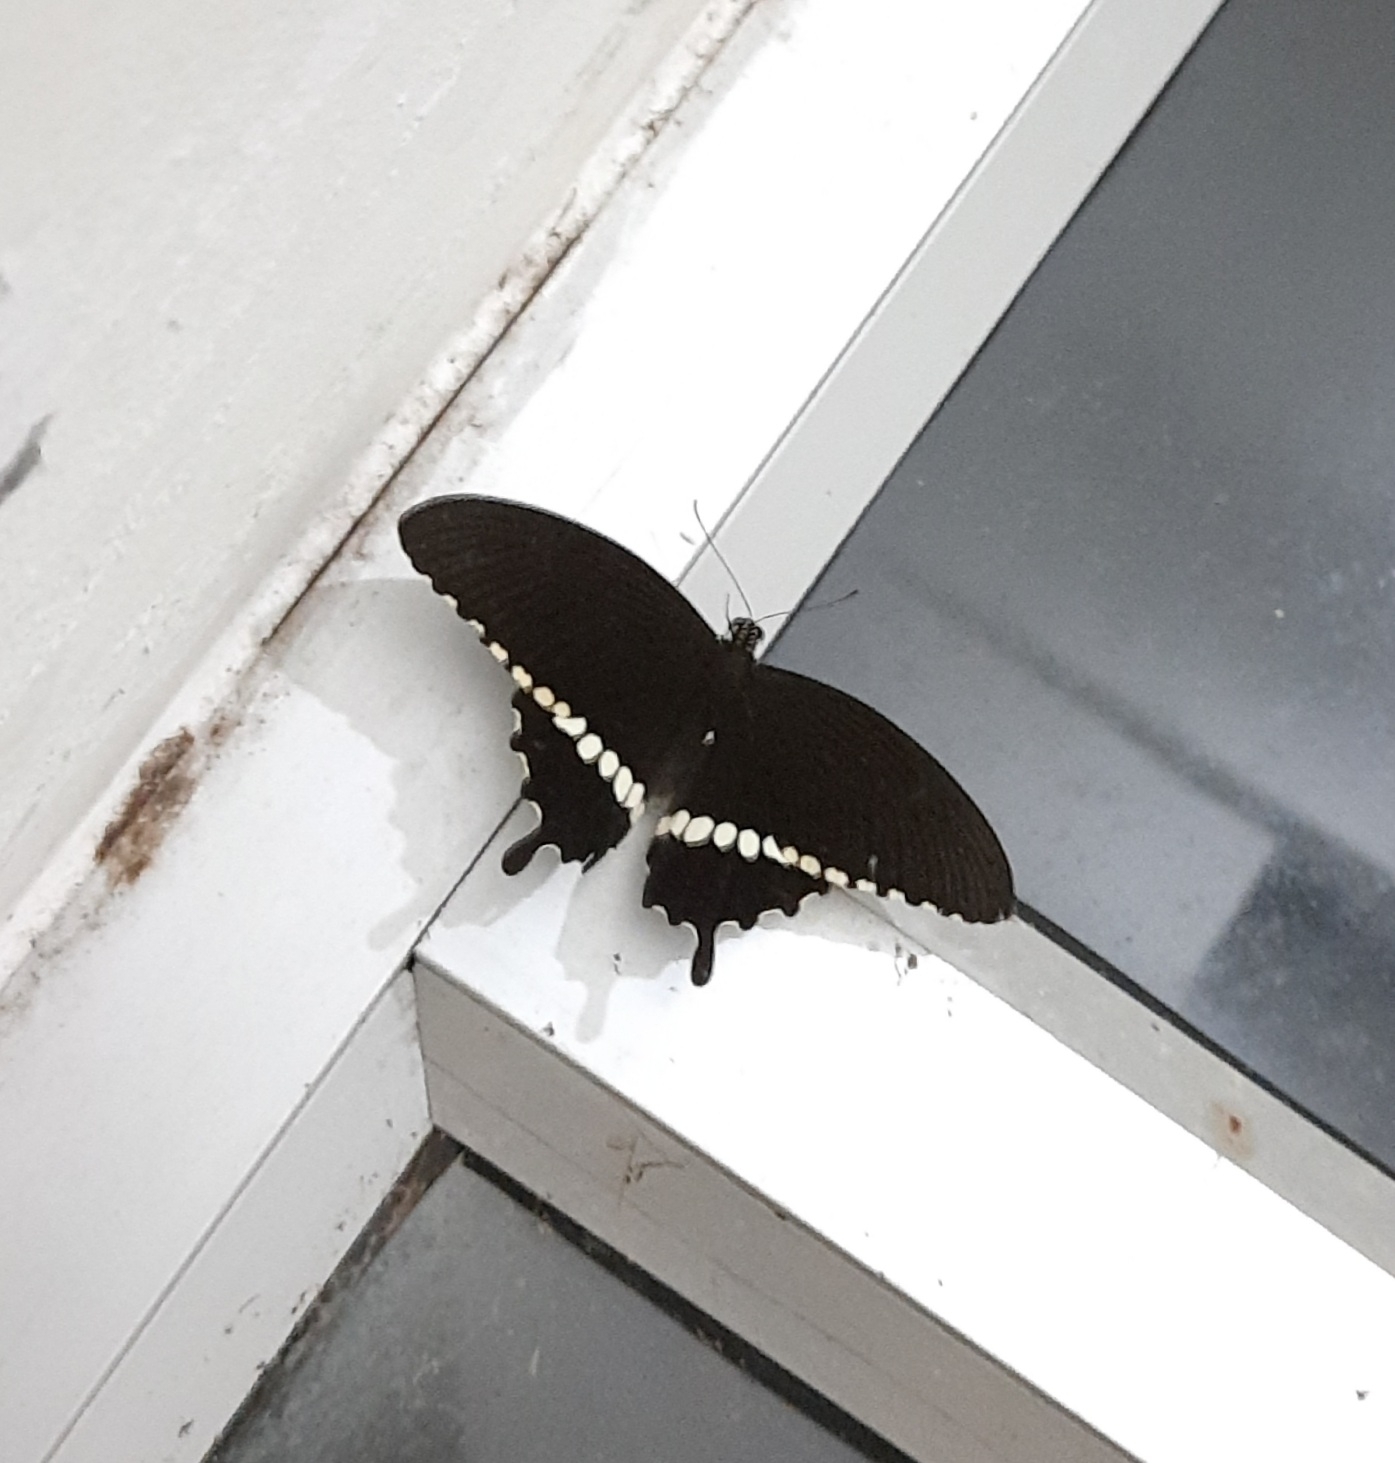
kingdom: Animalia
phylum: Arthropoda
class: Insecta
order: Lepidoptera
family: Papilionidae
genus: Papilio
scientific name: Papilio polytes
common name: Common mormon
